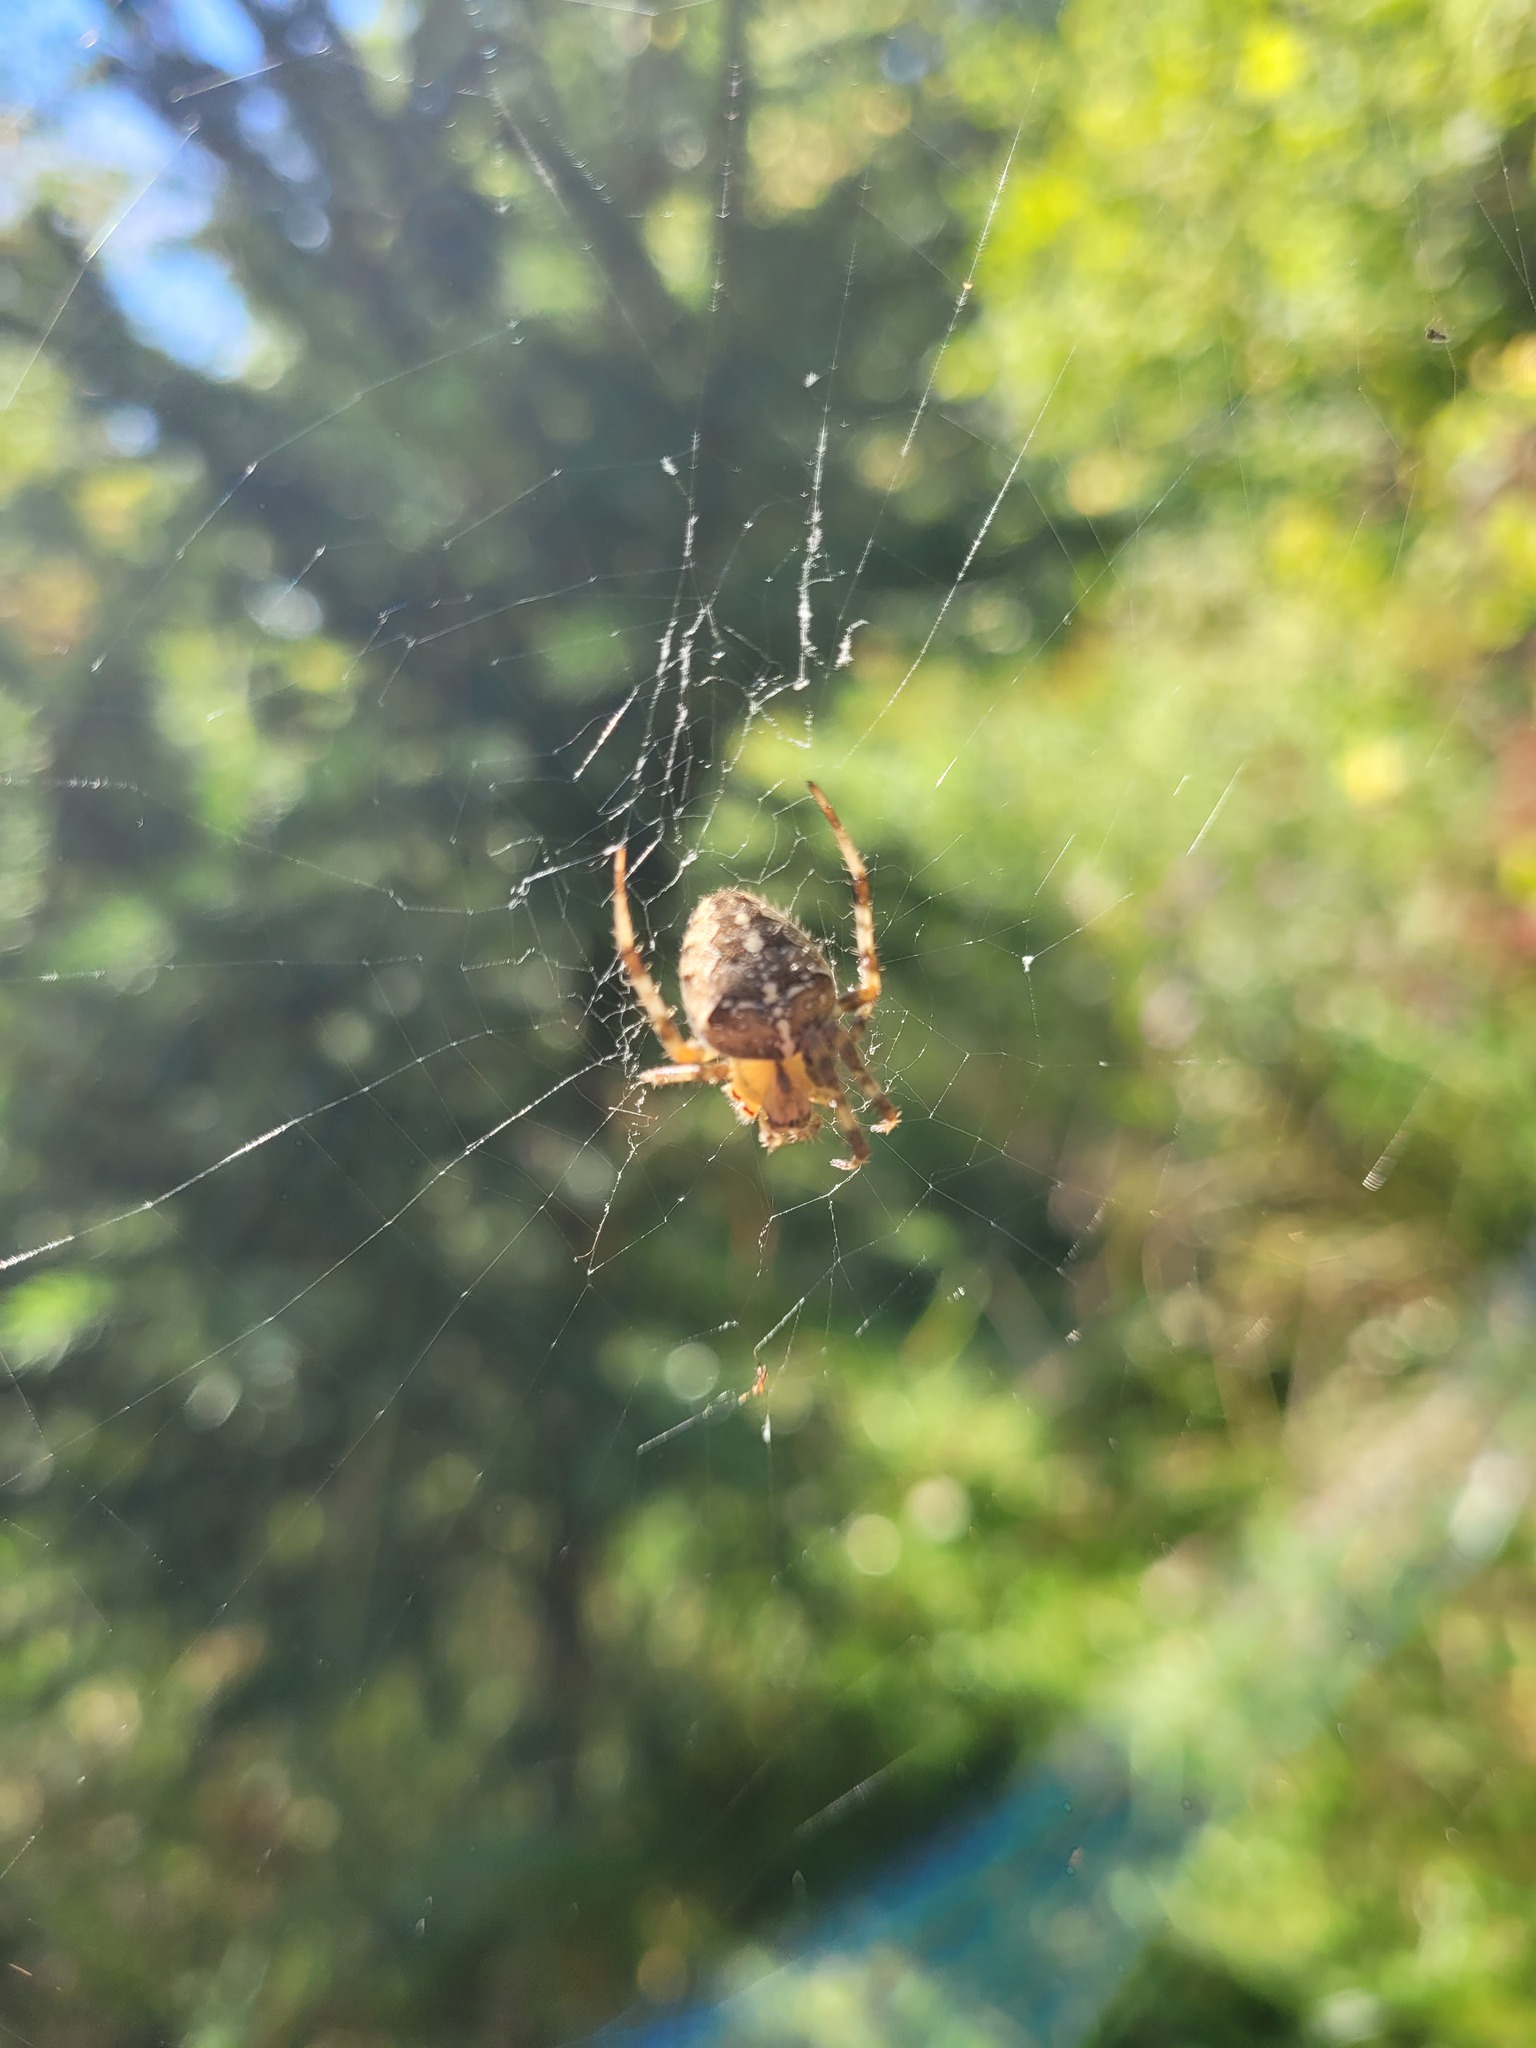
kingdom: Animalia
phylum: Arthropoda
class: Arachnida
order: Araneae
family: Araneidae
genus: Araneus
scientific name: Araneus diadematus
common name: Cross orbweaver
